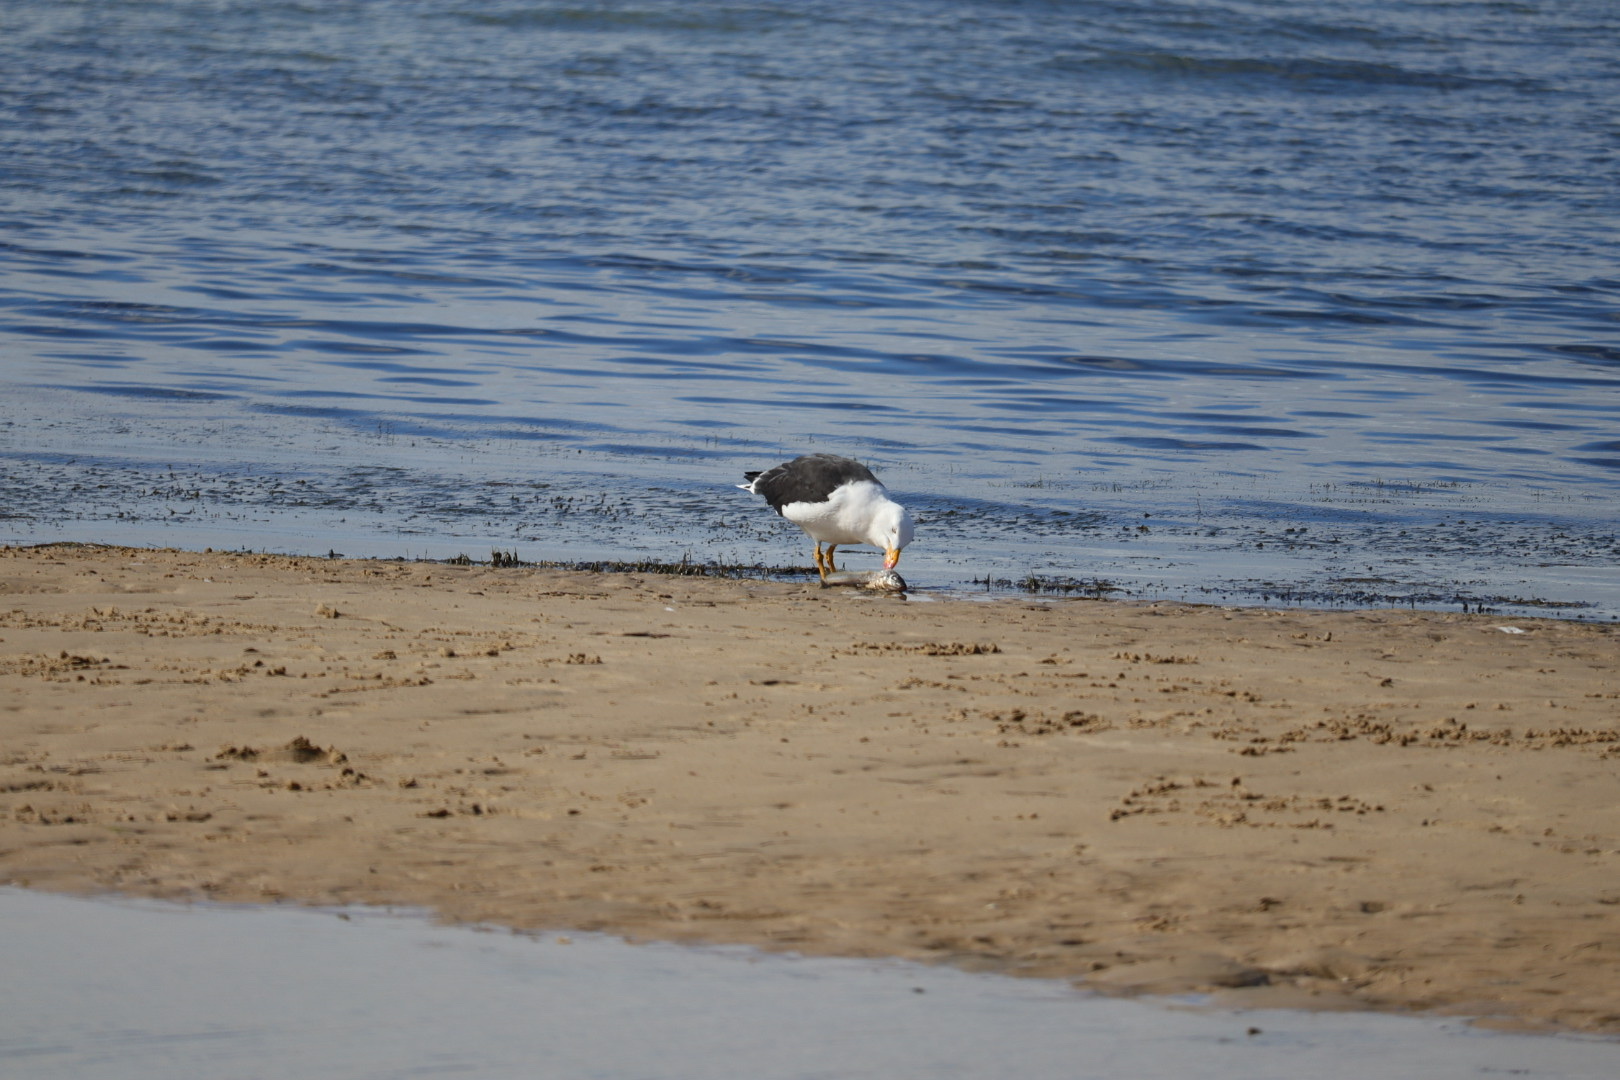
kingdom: Animalia
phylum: Chordata
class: Aves
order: Charadriiformes
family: Laridae
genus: Larus
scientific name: Larus pacificus
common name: Pacific gull
